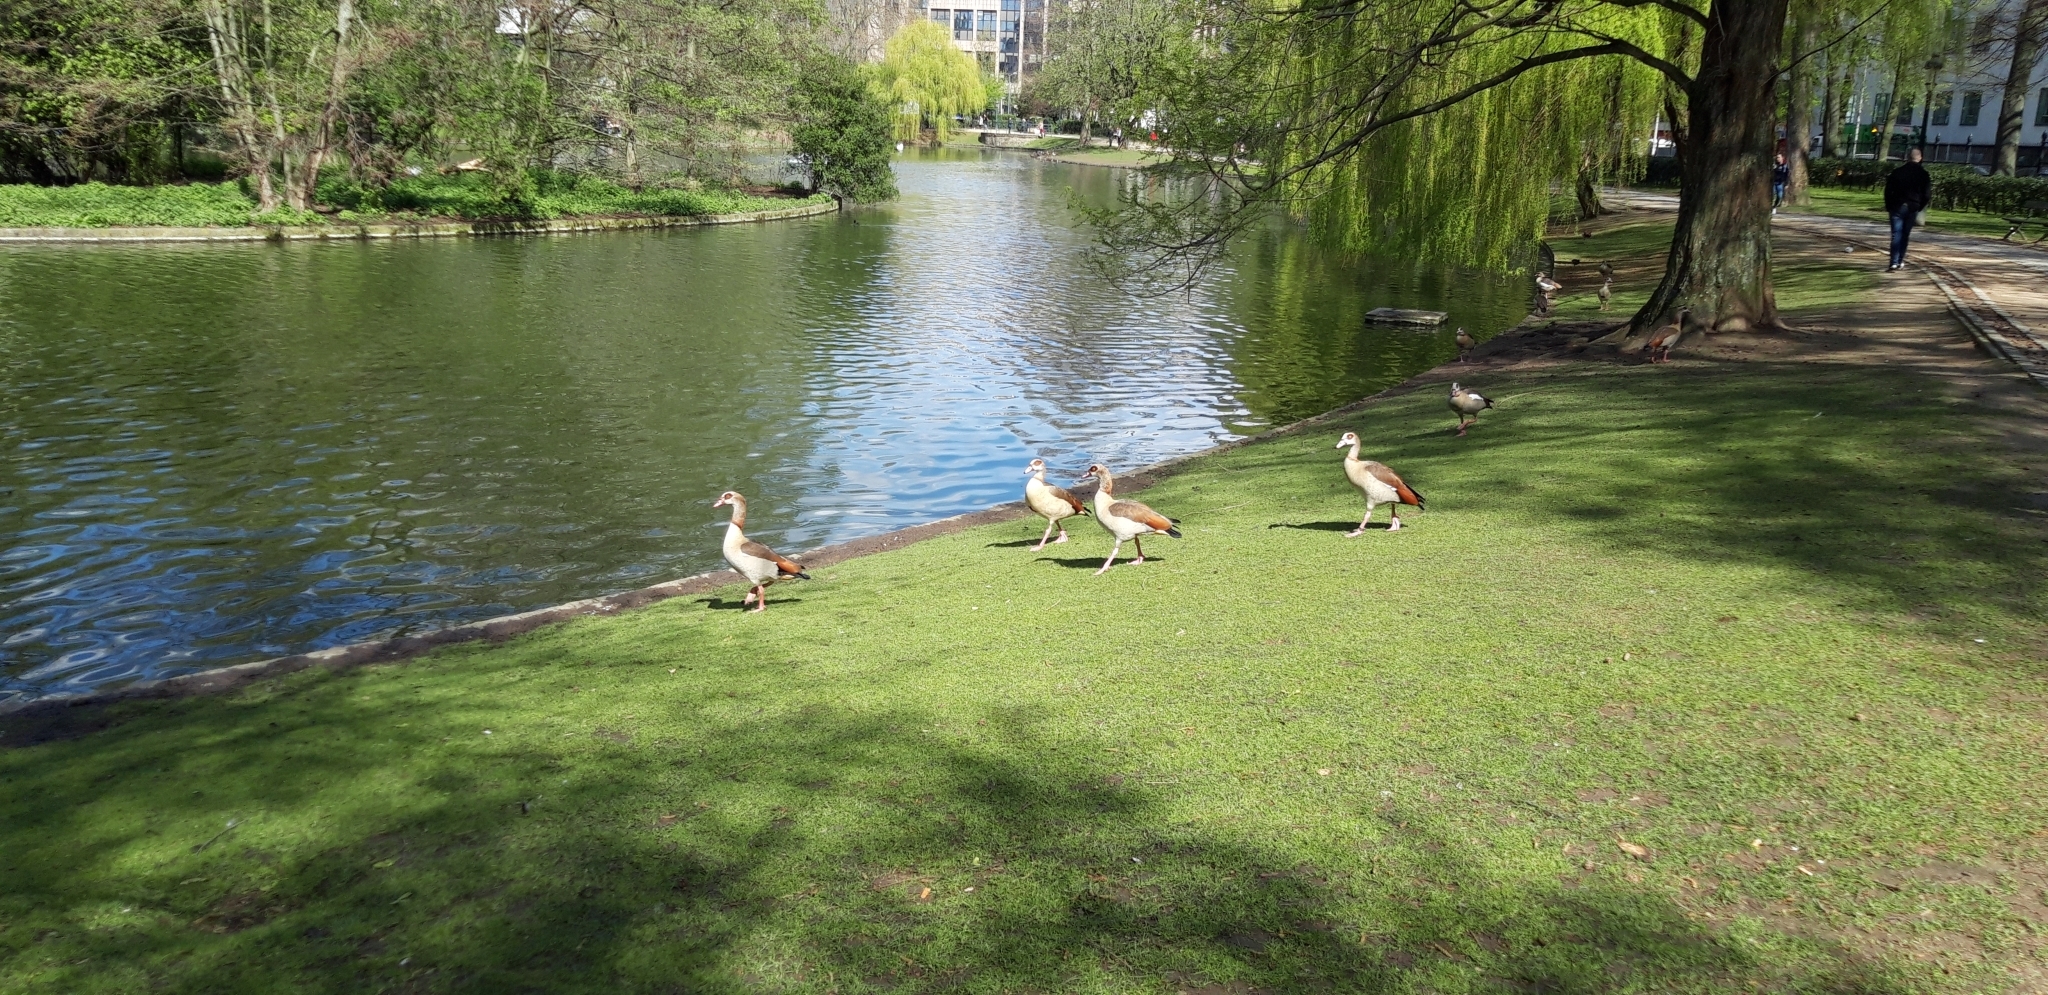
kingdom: Animalia
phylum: Chordata
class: Aves
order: Anseriformes
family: Anatidae
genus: Alopochen
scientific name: Alopochen aegyptiaca
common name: Egyptian goose
